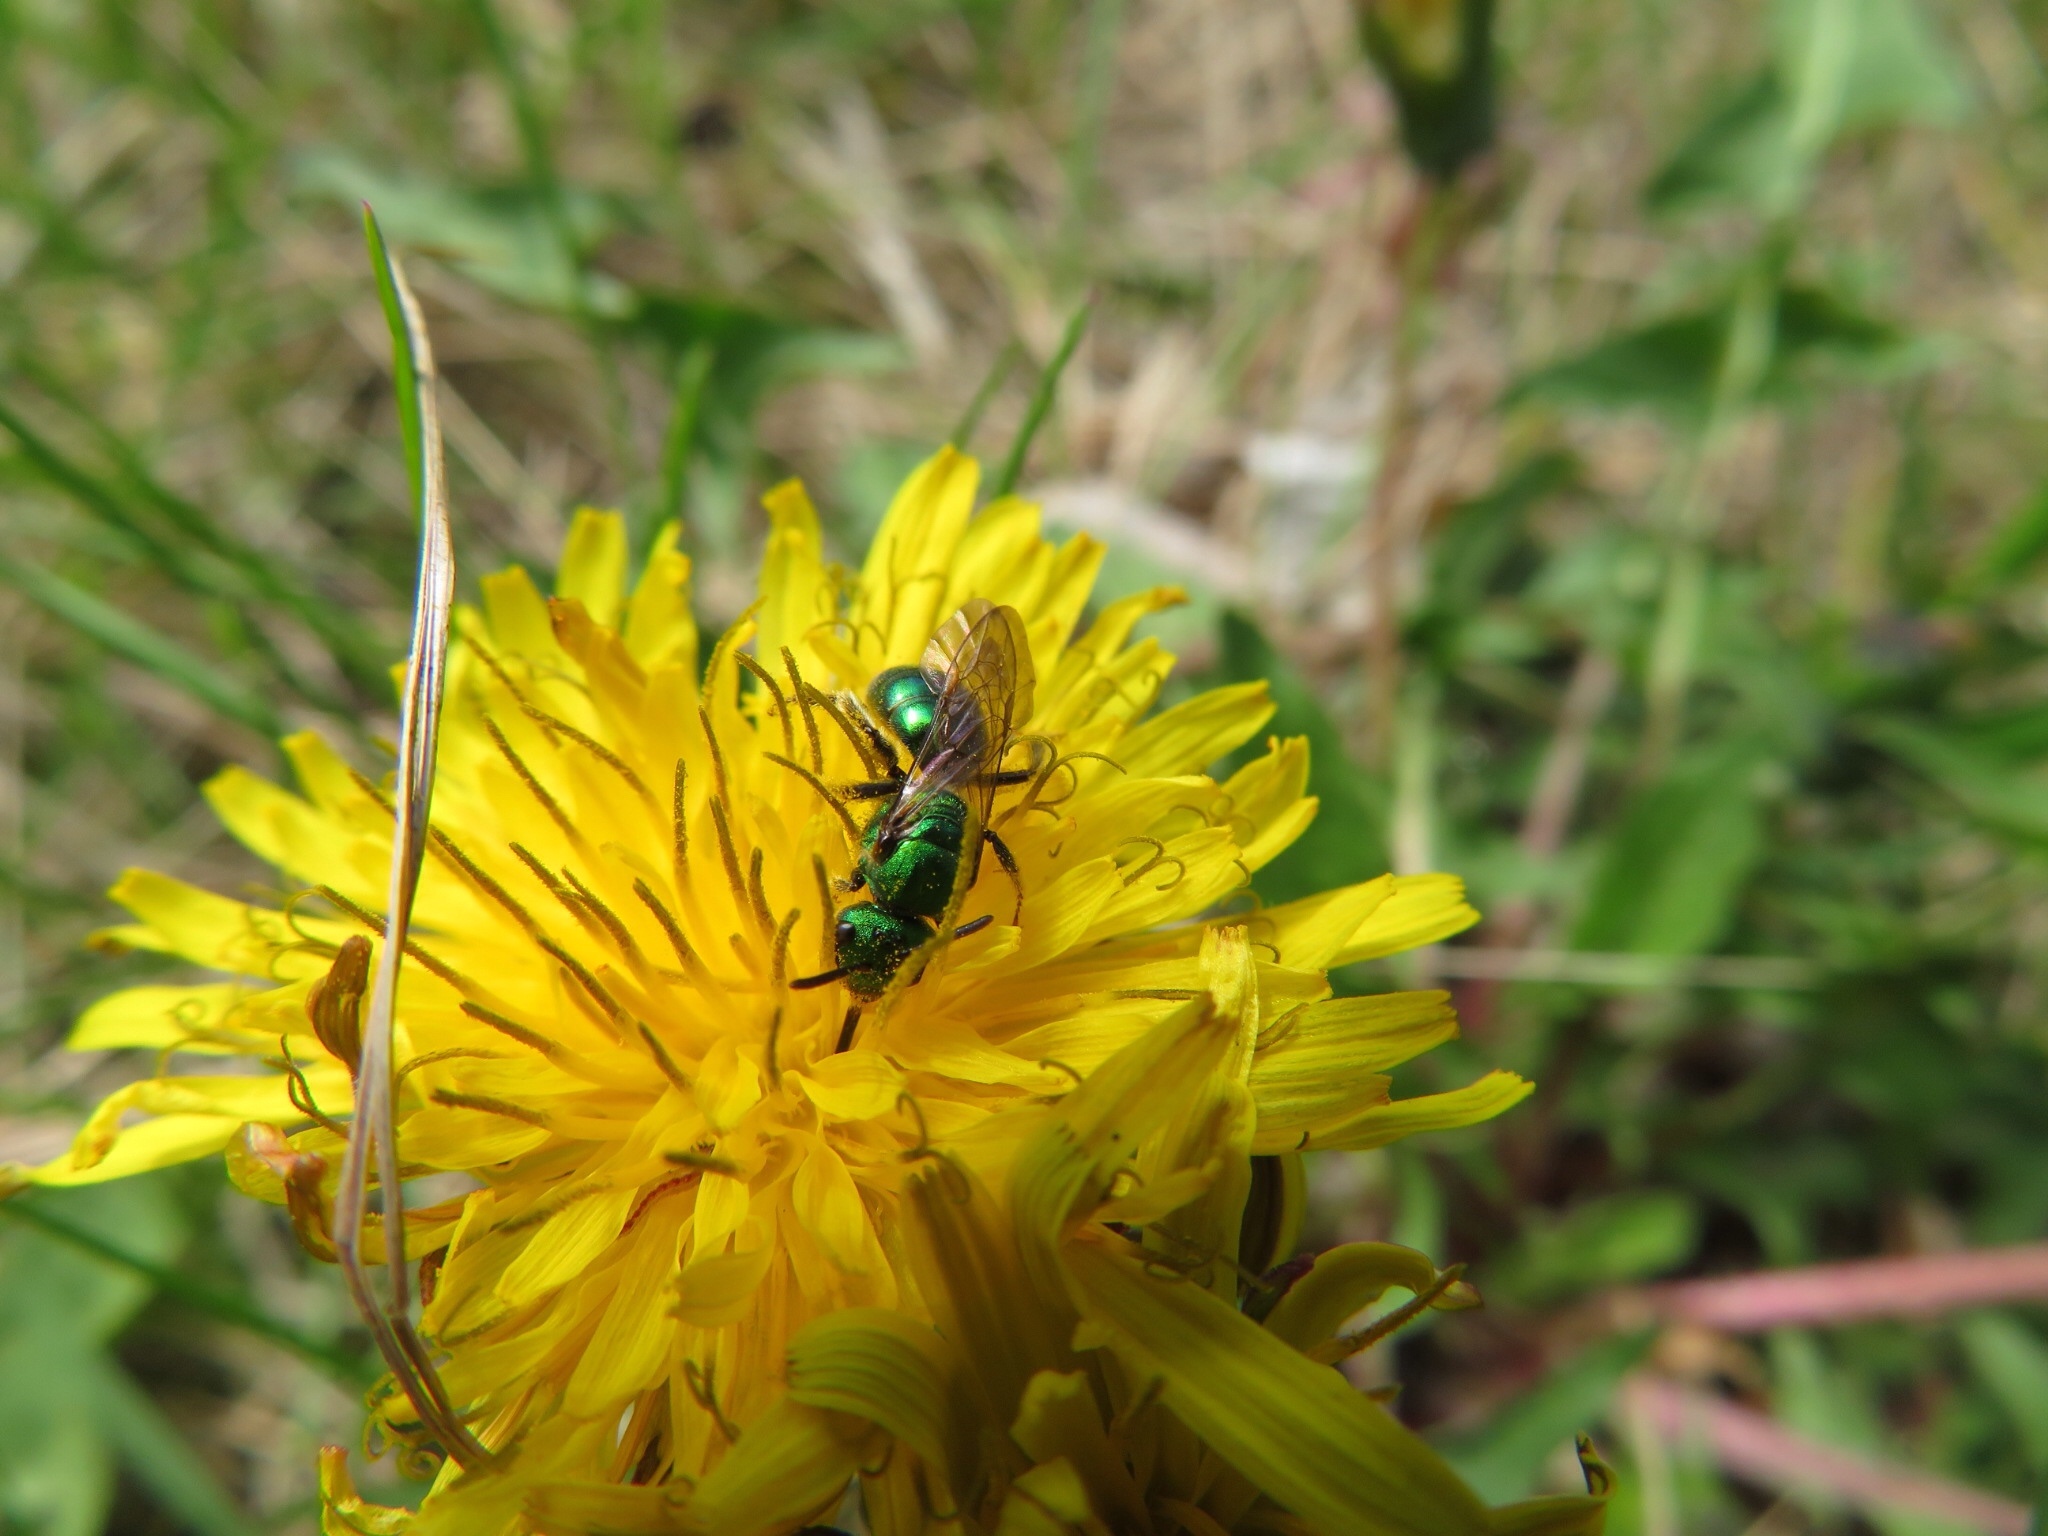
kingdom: Animalia
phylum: Arthropoda
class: Insecta
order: Hymenoptera
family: Halictidae
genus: Augochlora
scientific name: Augochlora pura
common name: Pure green sweat bee
